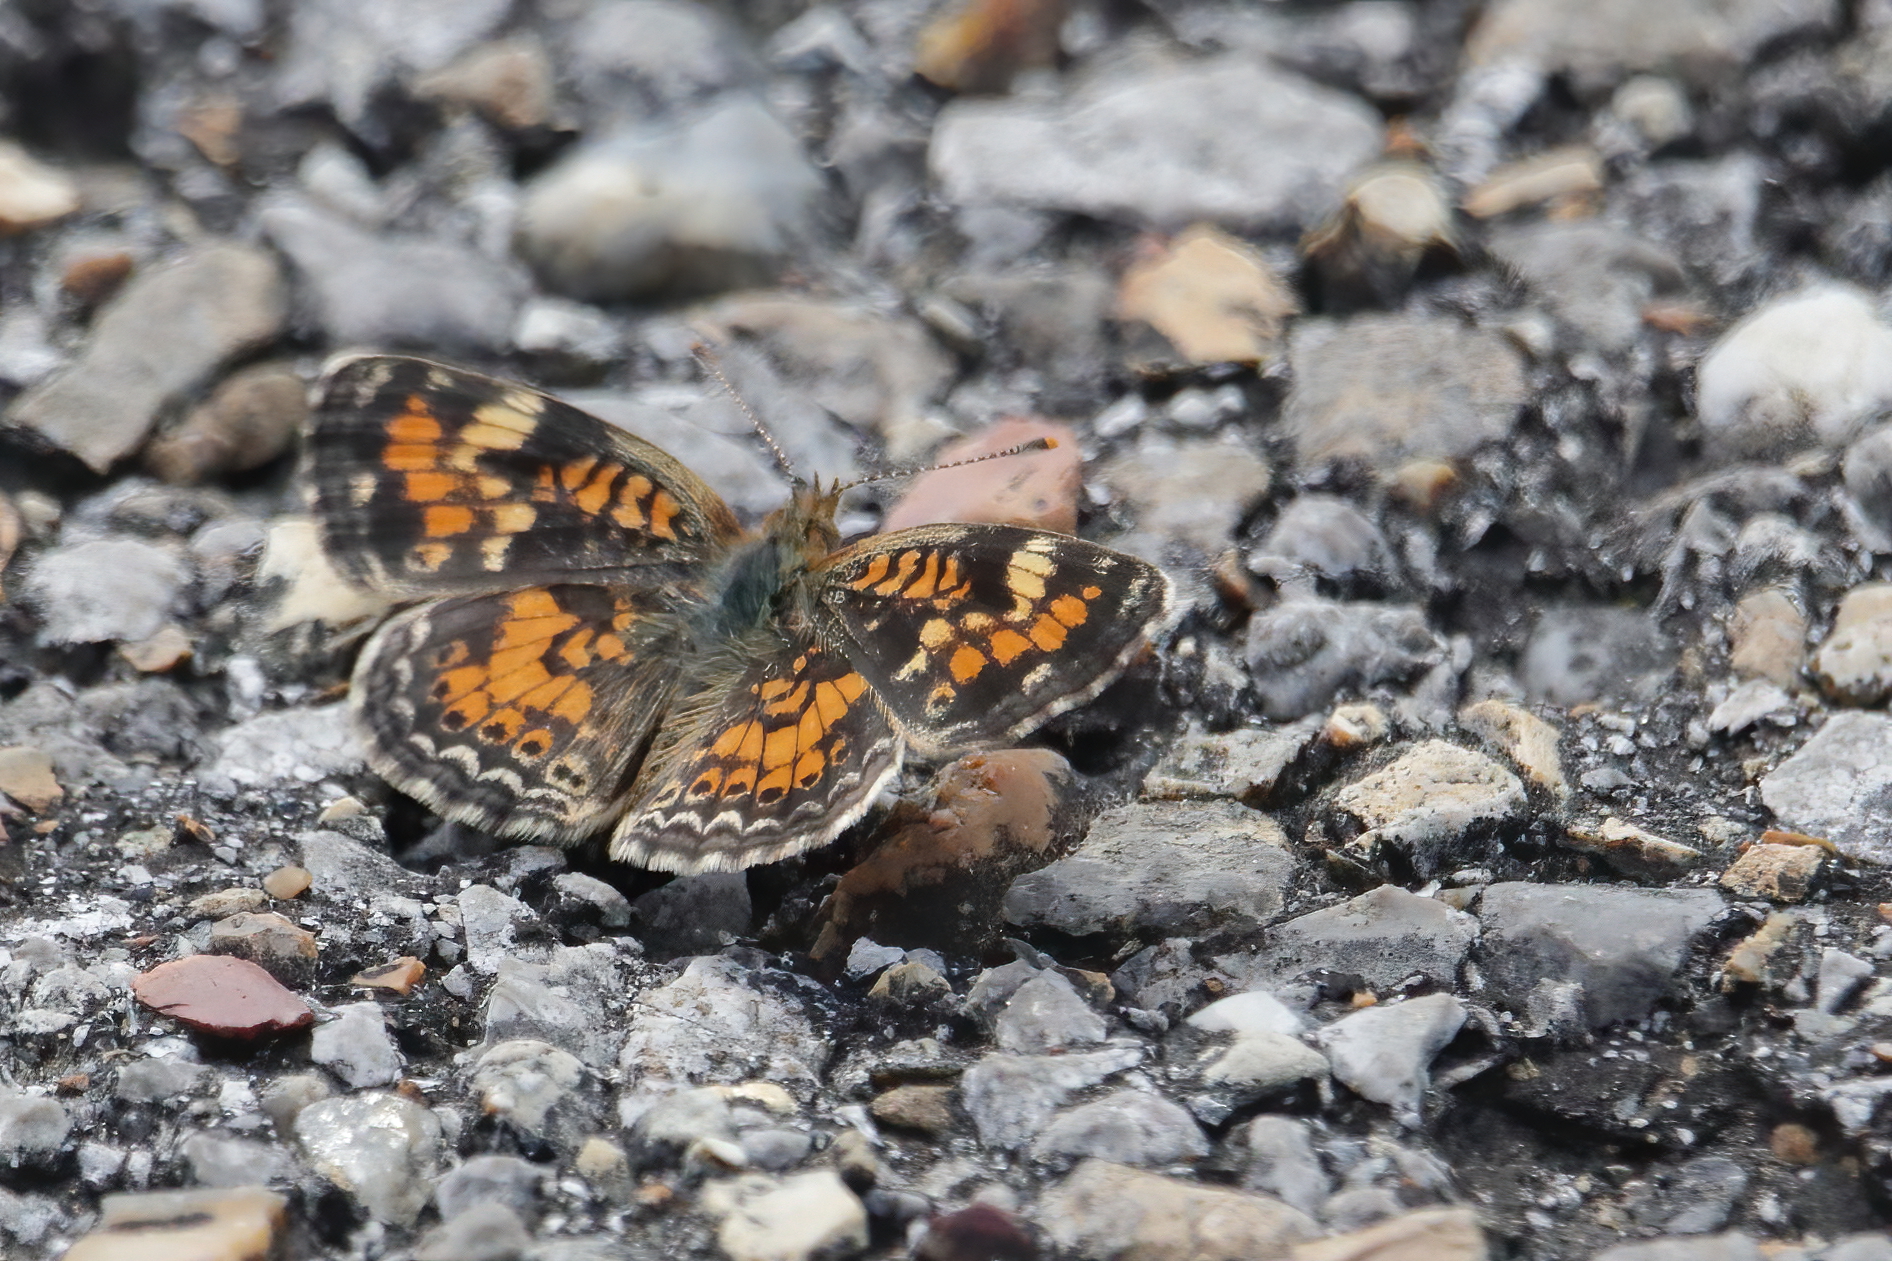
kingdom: Animalia
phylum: Arthropoda
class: Insecta
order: Lepidoptera
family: Nymphalidae
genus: Phyciodes
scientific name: Phyciodes phaon
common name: Phaon crescent
